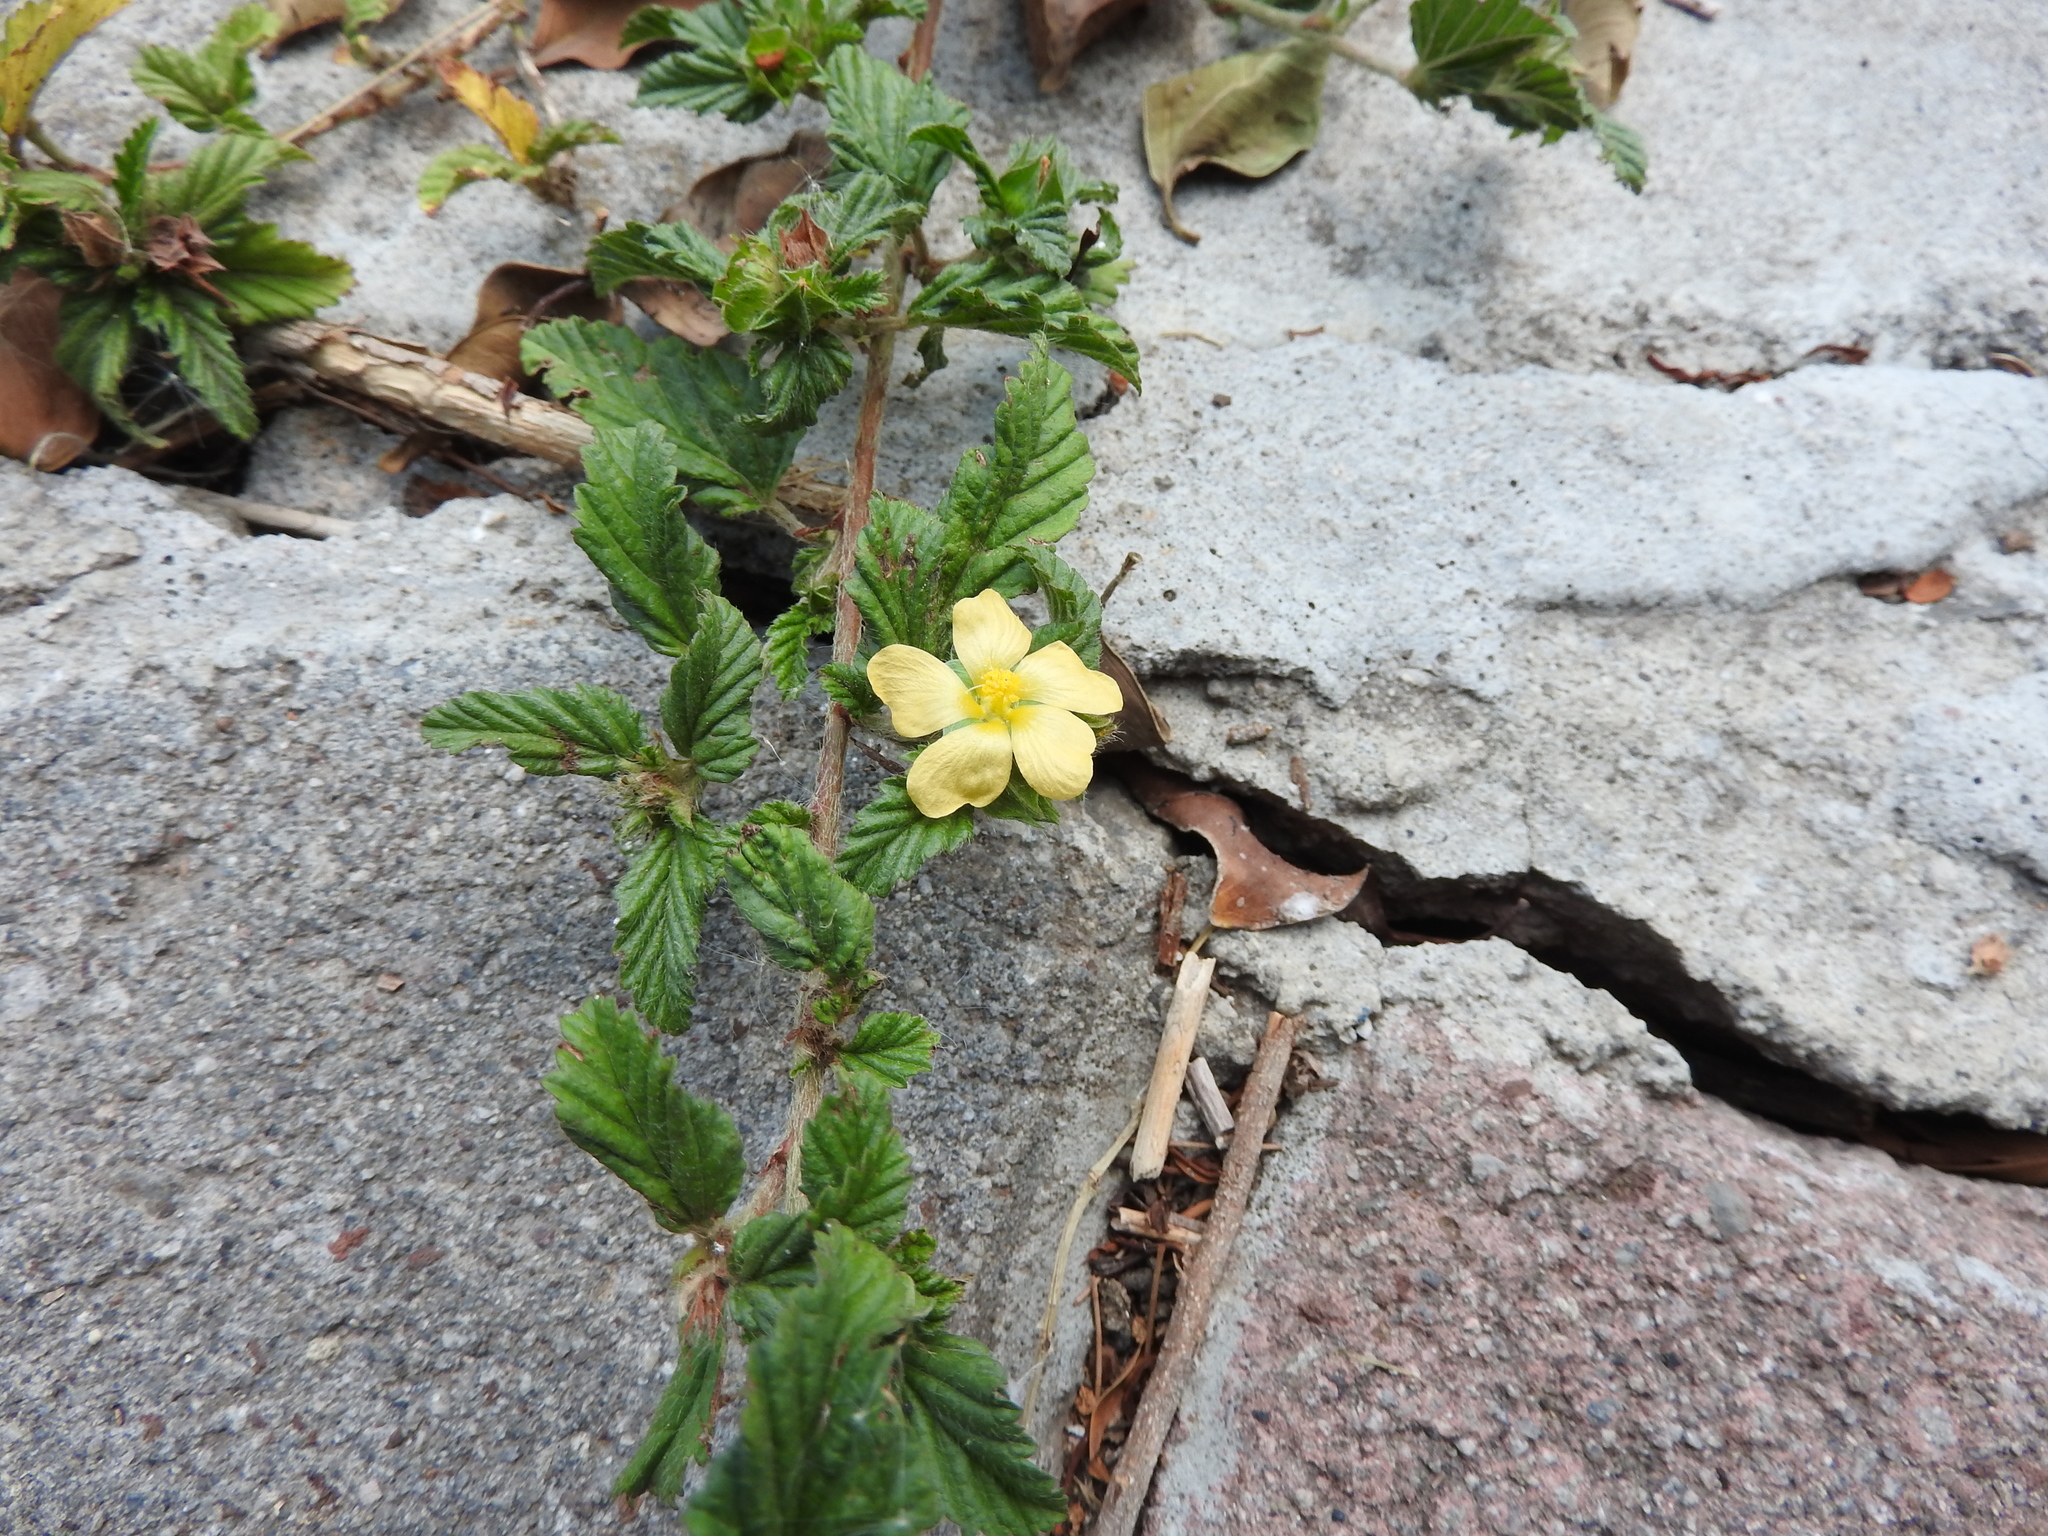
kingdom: Plantae
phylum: Tracheophyta
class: Magnoliopsida
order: Malvales
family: Malvaceae
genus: Malvastrum
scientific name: Malvastrum coromandelianum
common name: Threelobe false mallow
